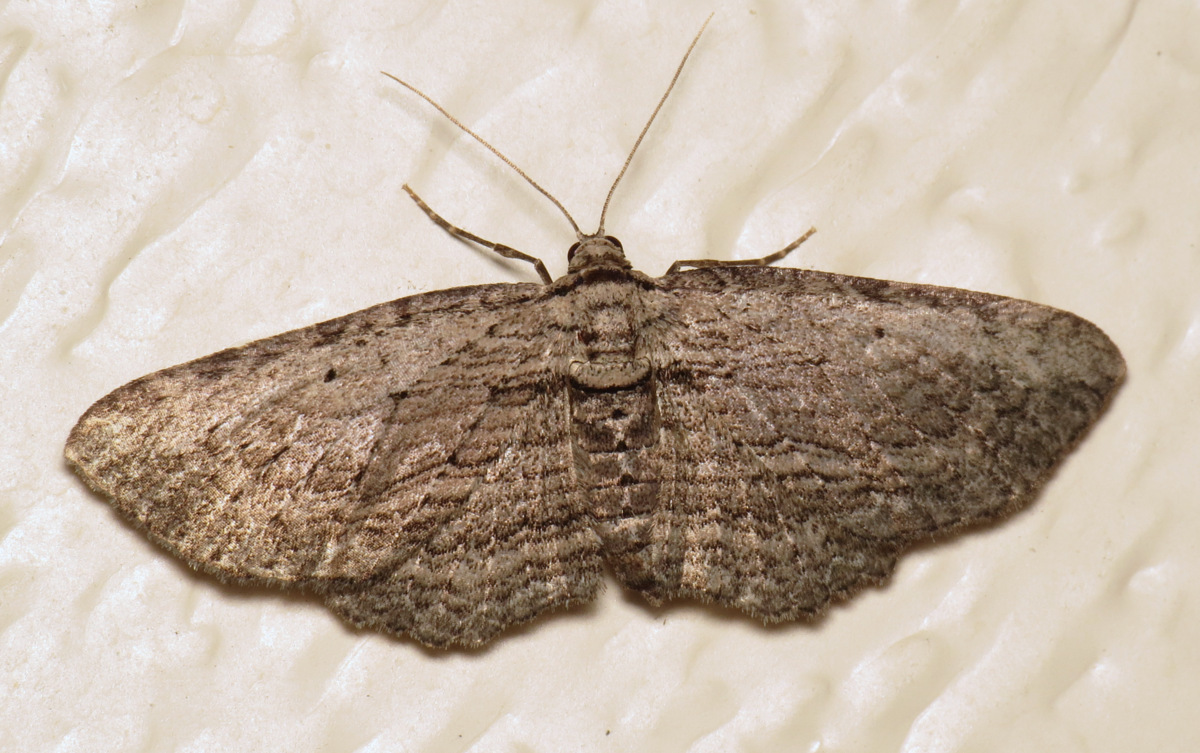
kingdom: Animalia
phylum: Arthropoda
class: Insecta
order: Lepidoptera
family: Geometridae
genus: Horisme
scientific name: Horisme intestinata
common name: Brown bark carpet
